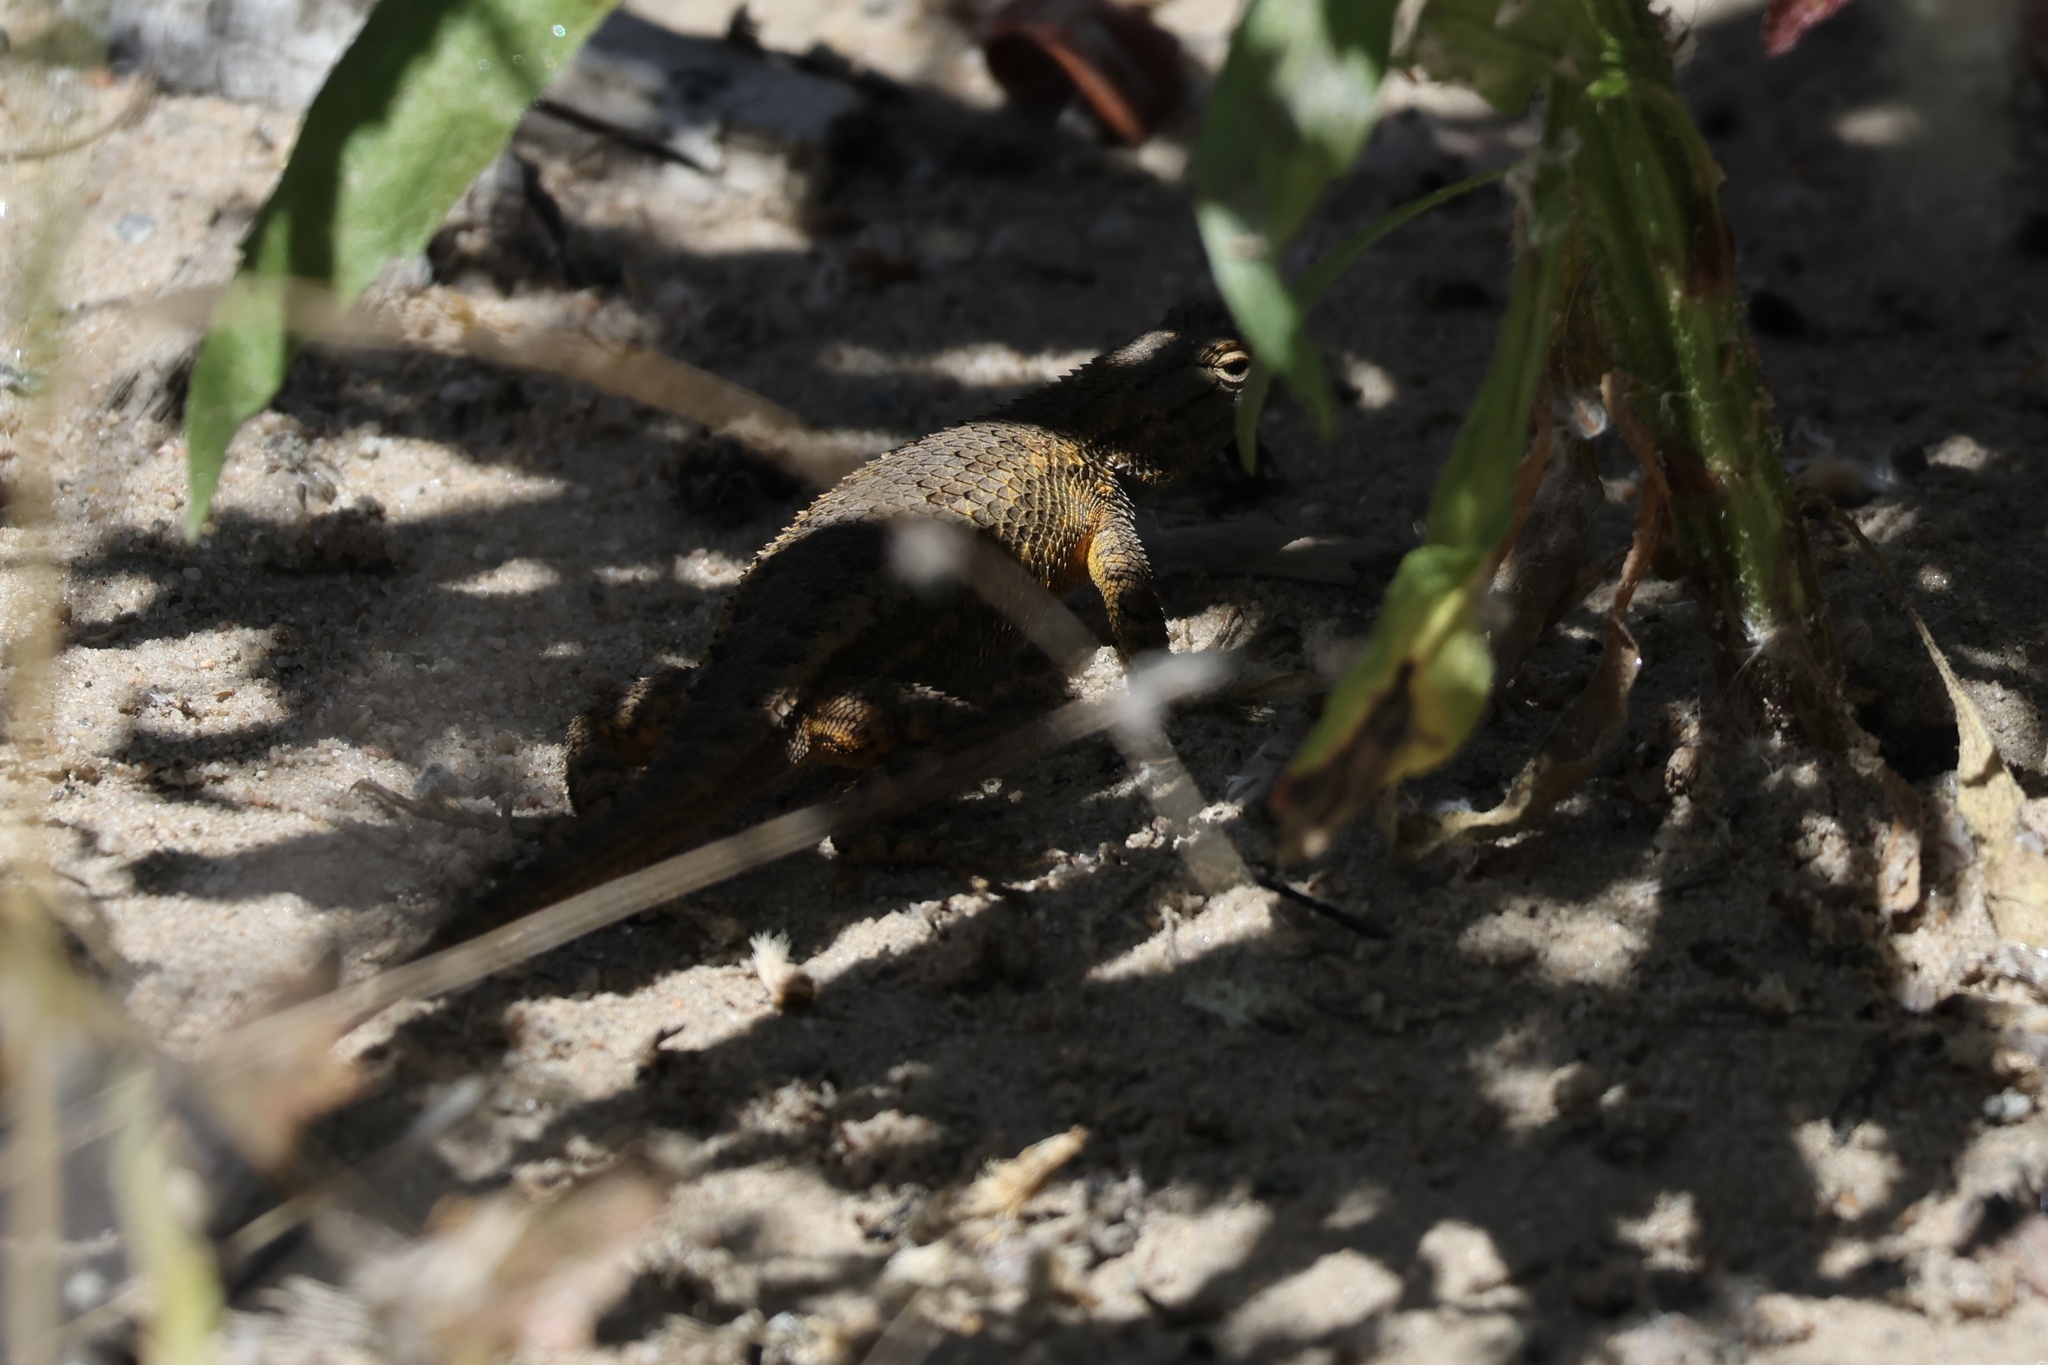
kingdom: Animalia
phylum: Chordata
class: Squamata
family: Phrynosomatidae
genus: Sceloporus
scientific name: Sceloporus occidentalis
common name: Western fence lizard
